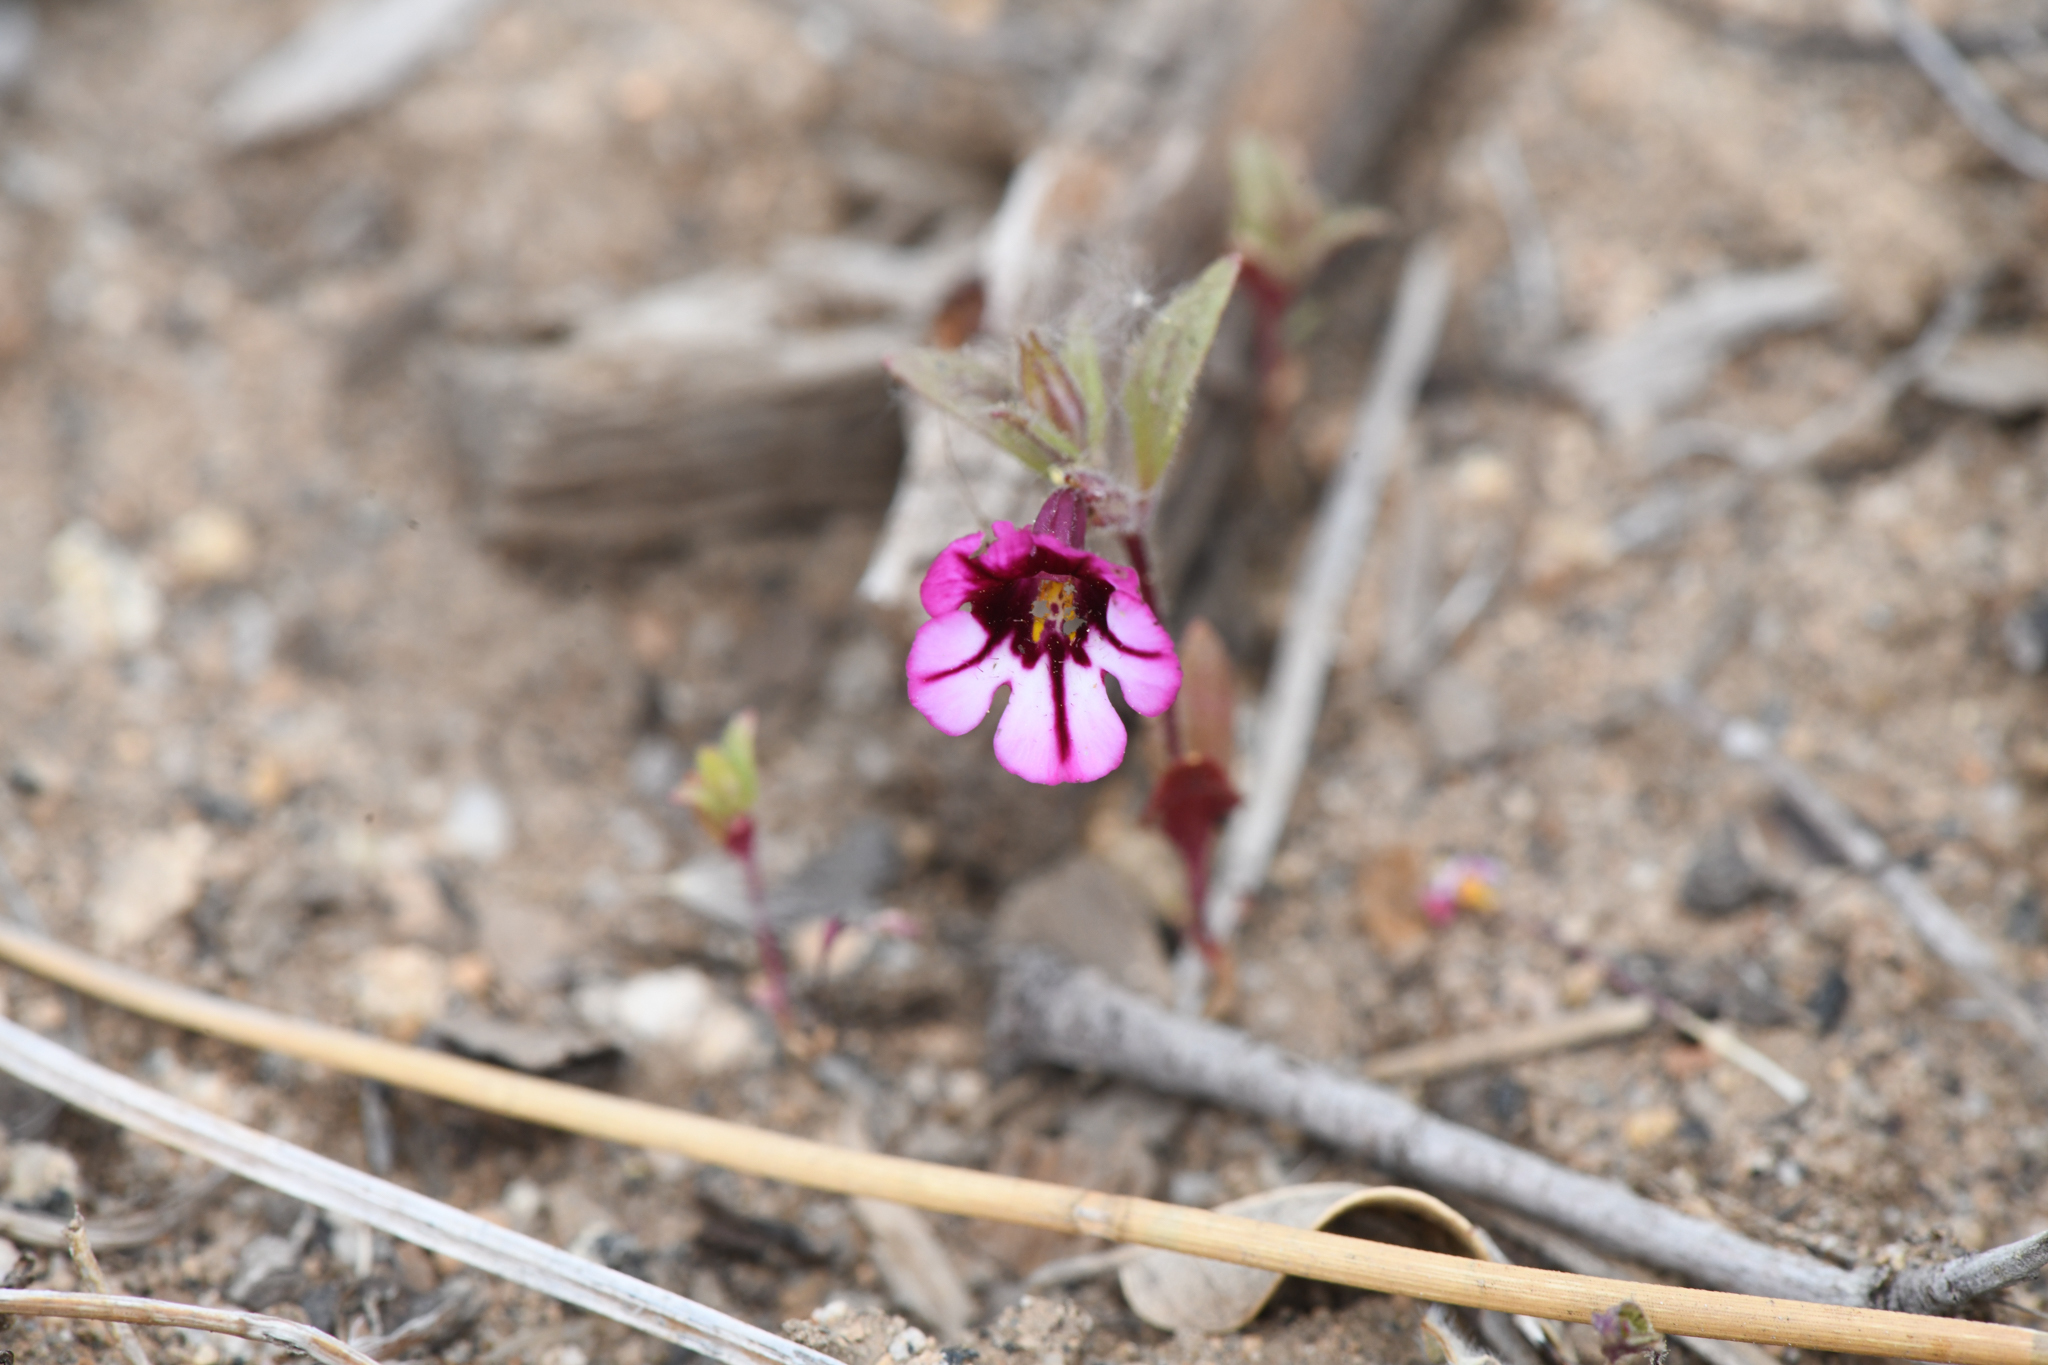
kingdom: Plantae
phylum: Tracheophyta
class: Magnoliopsida
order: Lamiales
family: Phrymaceae
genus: Diplacus
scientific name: Diplacus graniticola
